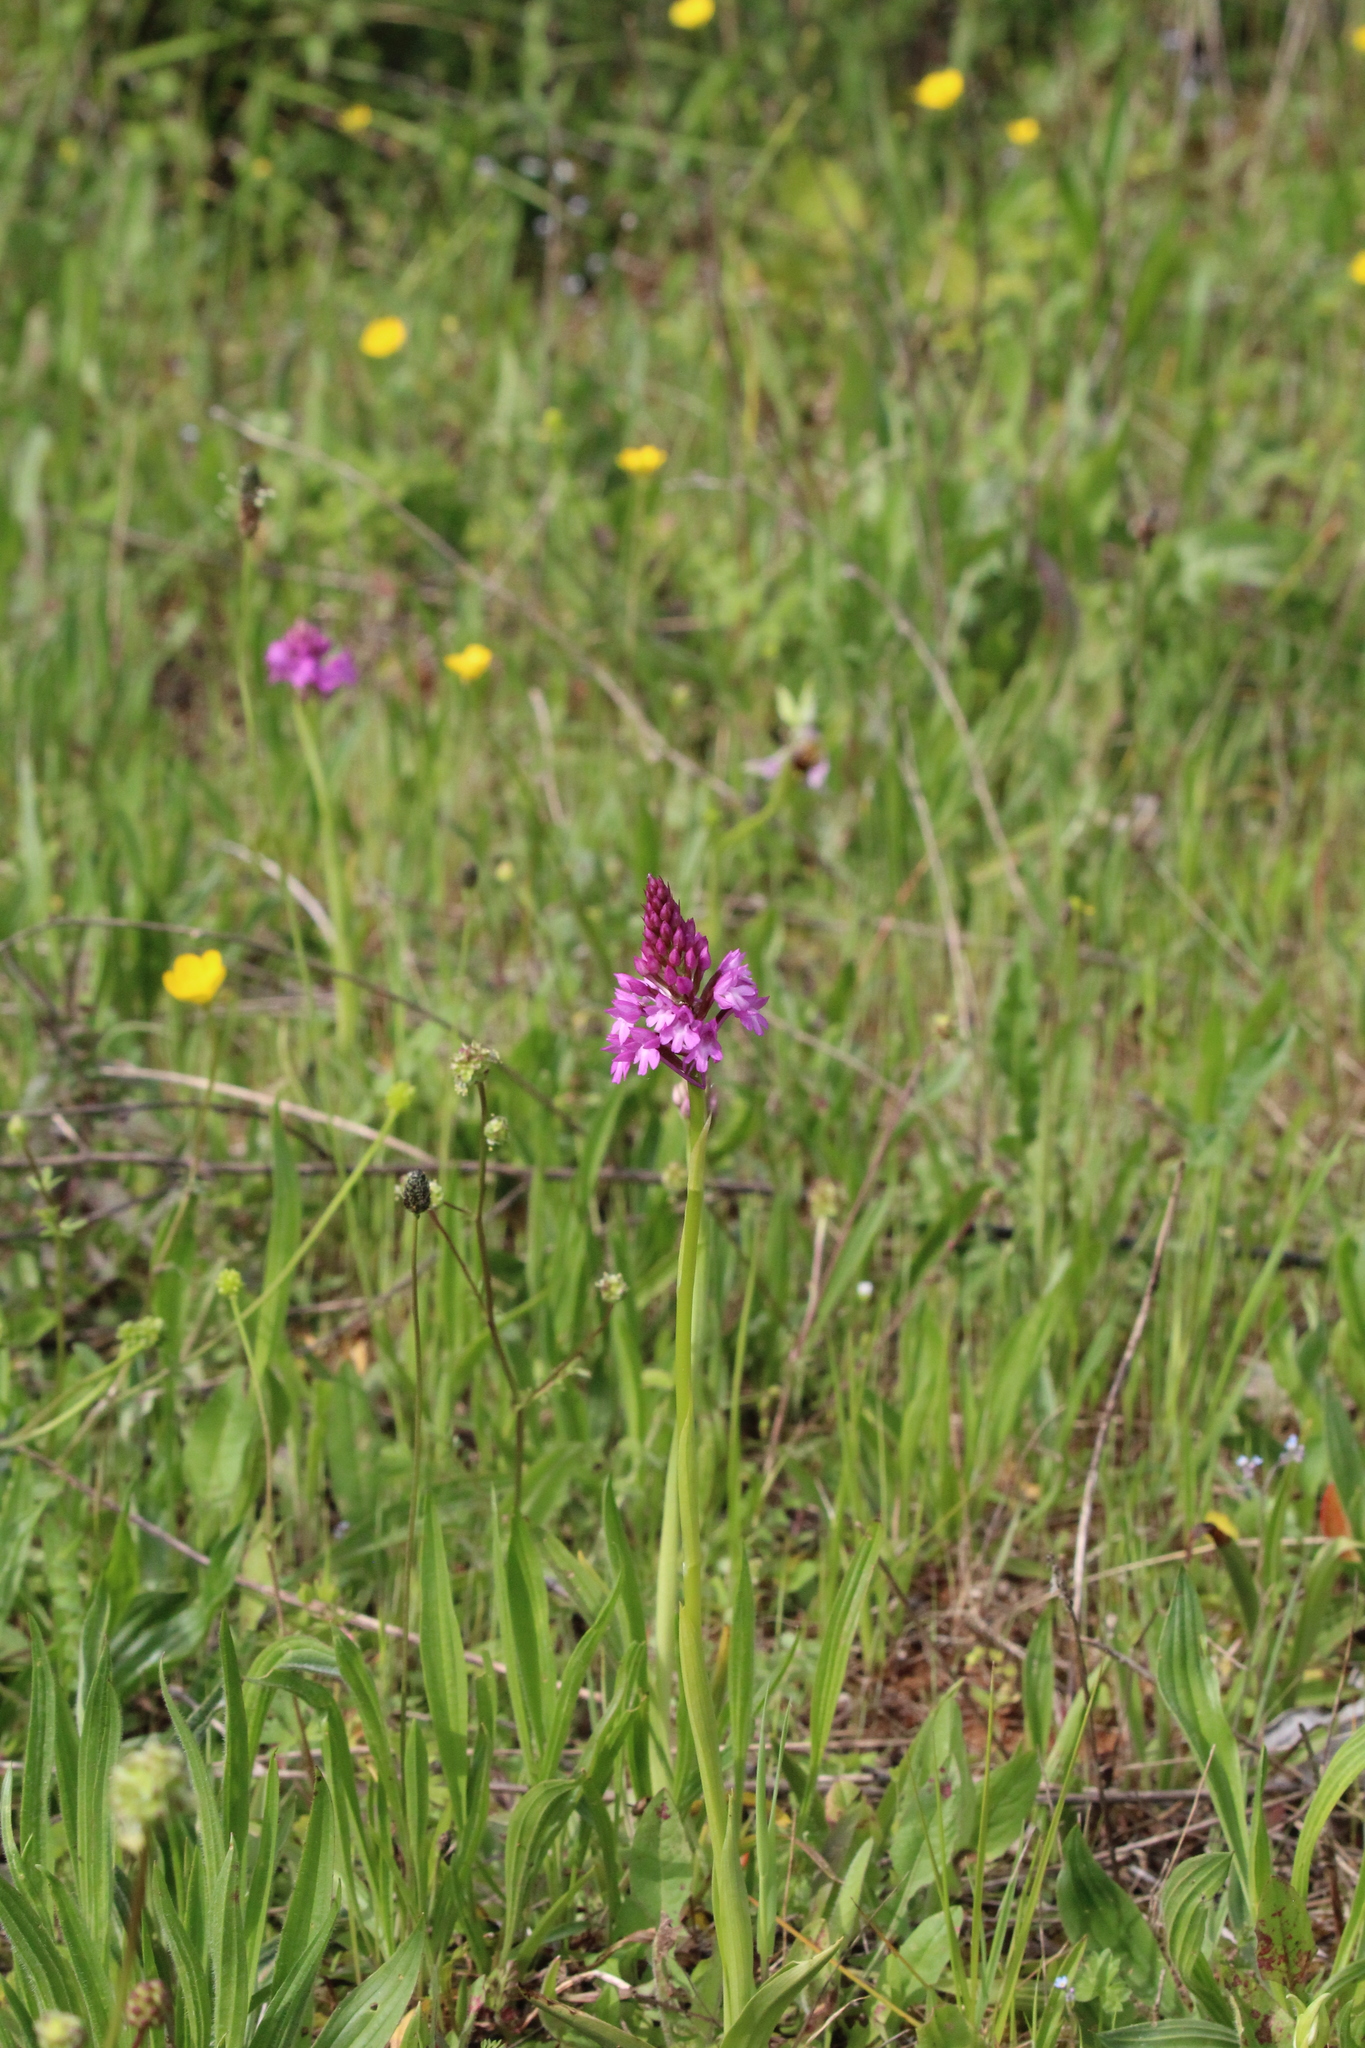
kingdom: Plantae
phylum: Tracheophyta
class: Liliopsida
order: Asparagales
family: Orchidaceae
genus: Anacamptis
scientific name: Anacamptis pyramidalis
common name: Pyramidal orchid
